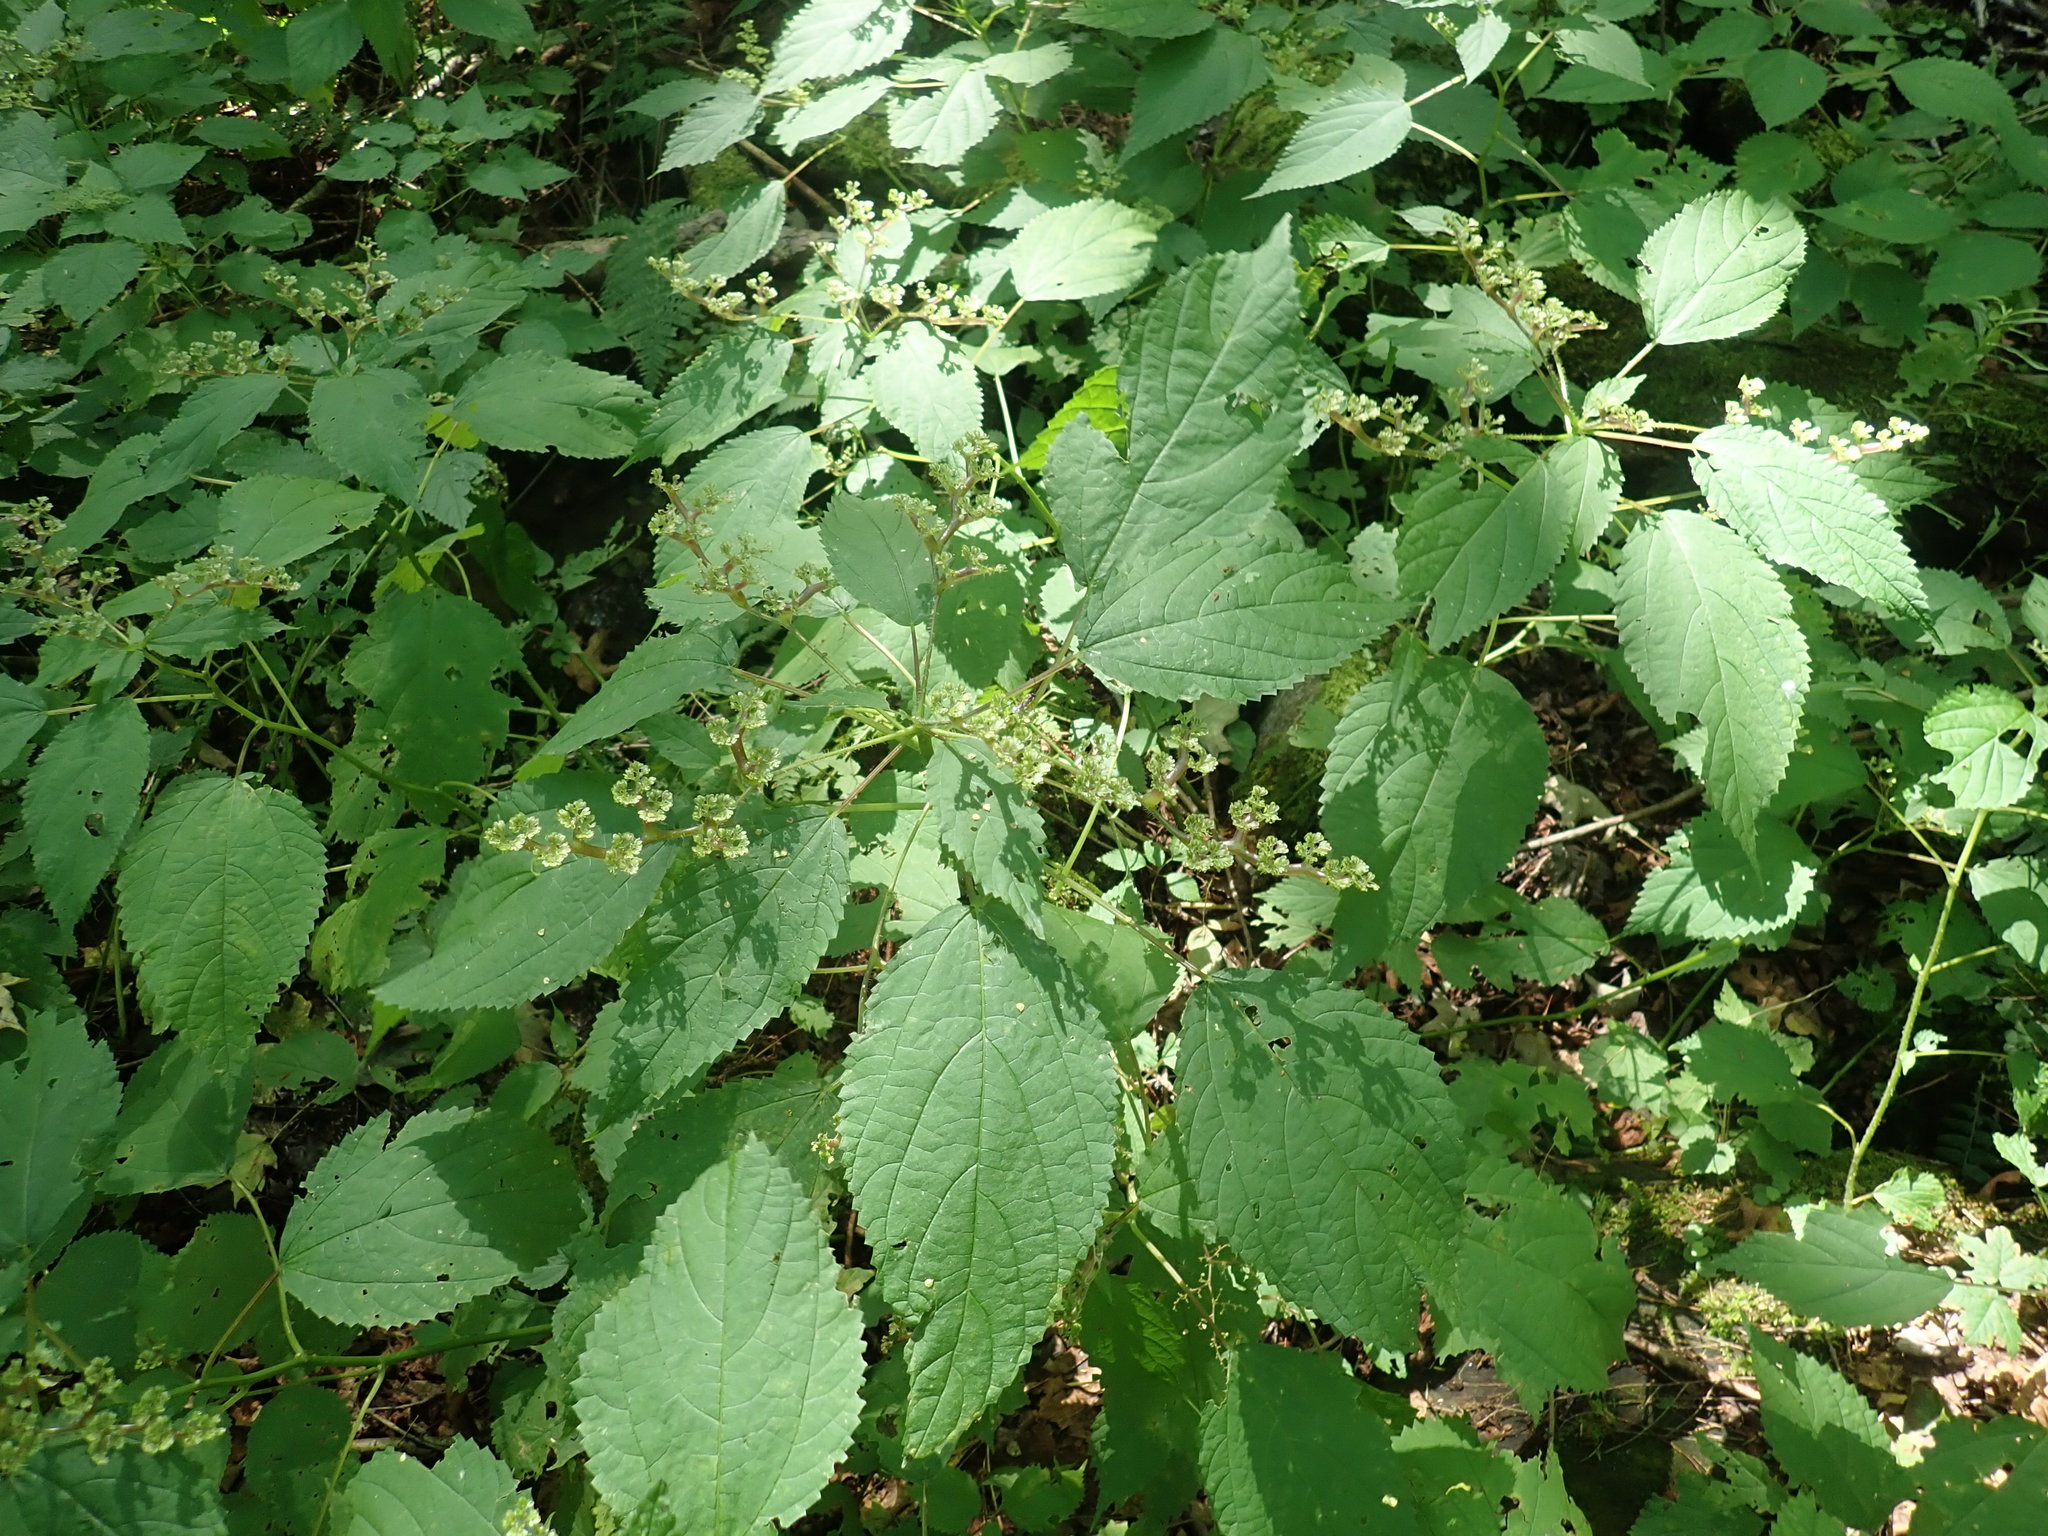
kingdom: Plantae
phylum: Tracheophyta
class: Magnoliopsida
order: Rosales
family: Urticaceae
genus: Laportea
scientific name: Laportea canadensis
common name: Canada nettle
